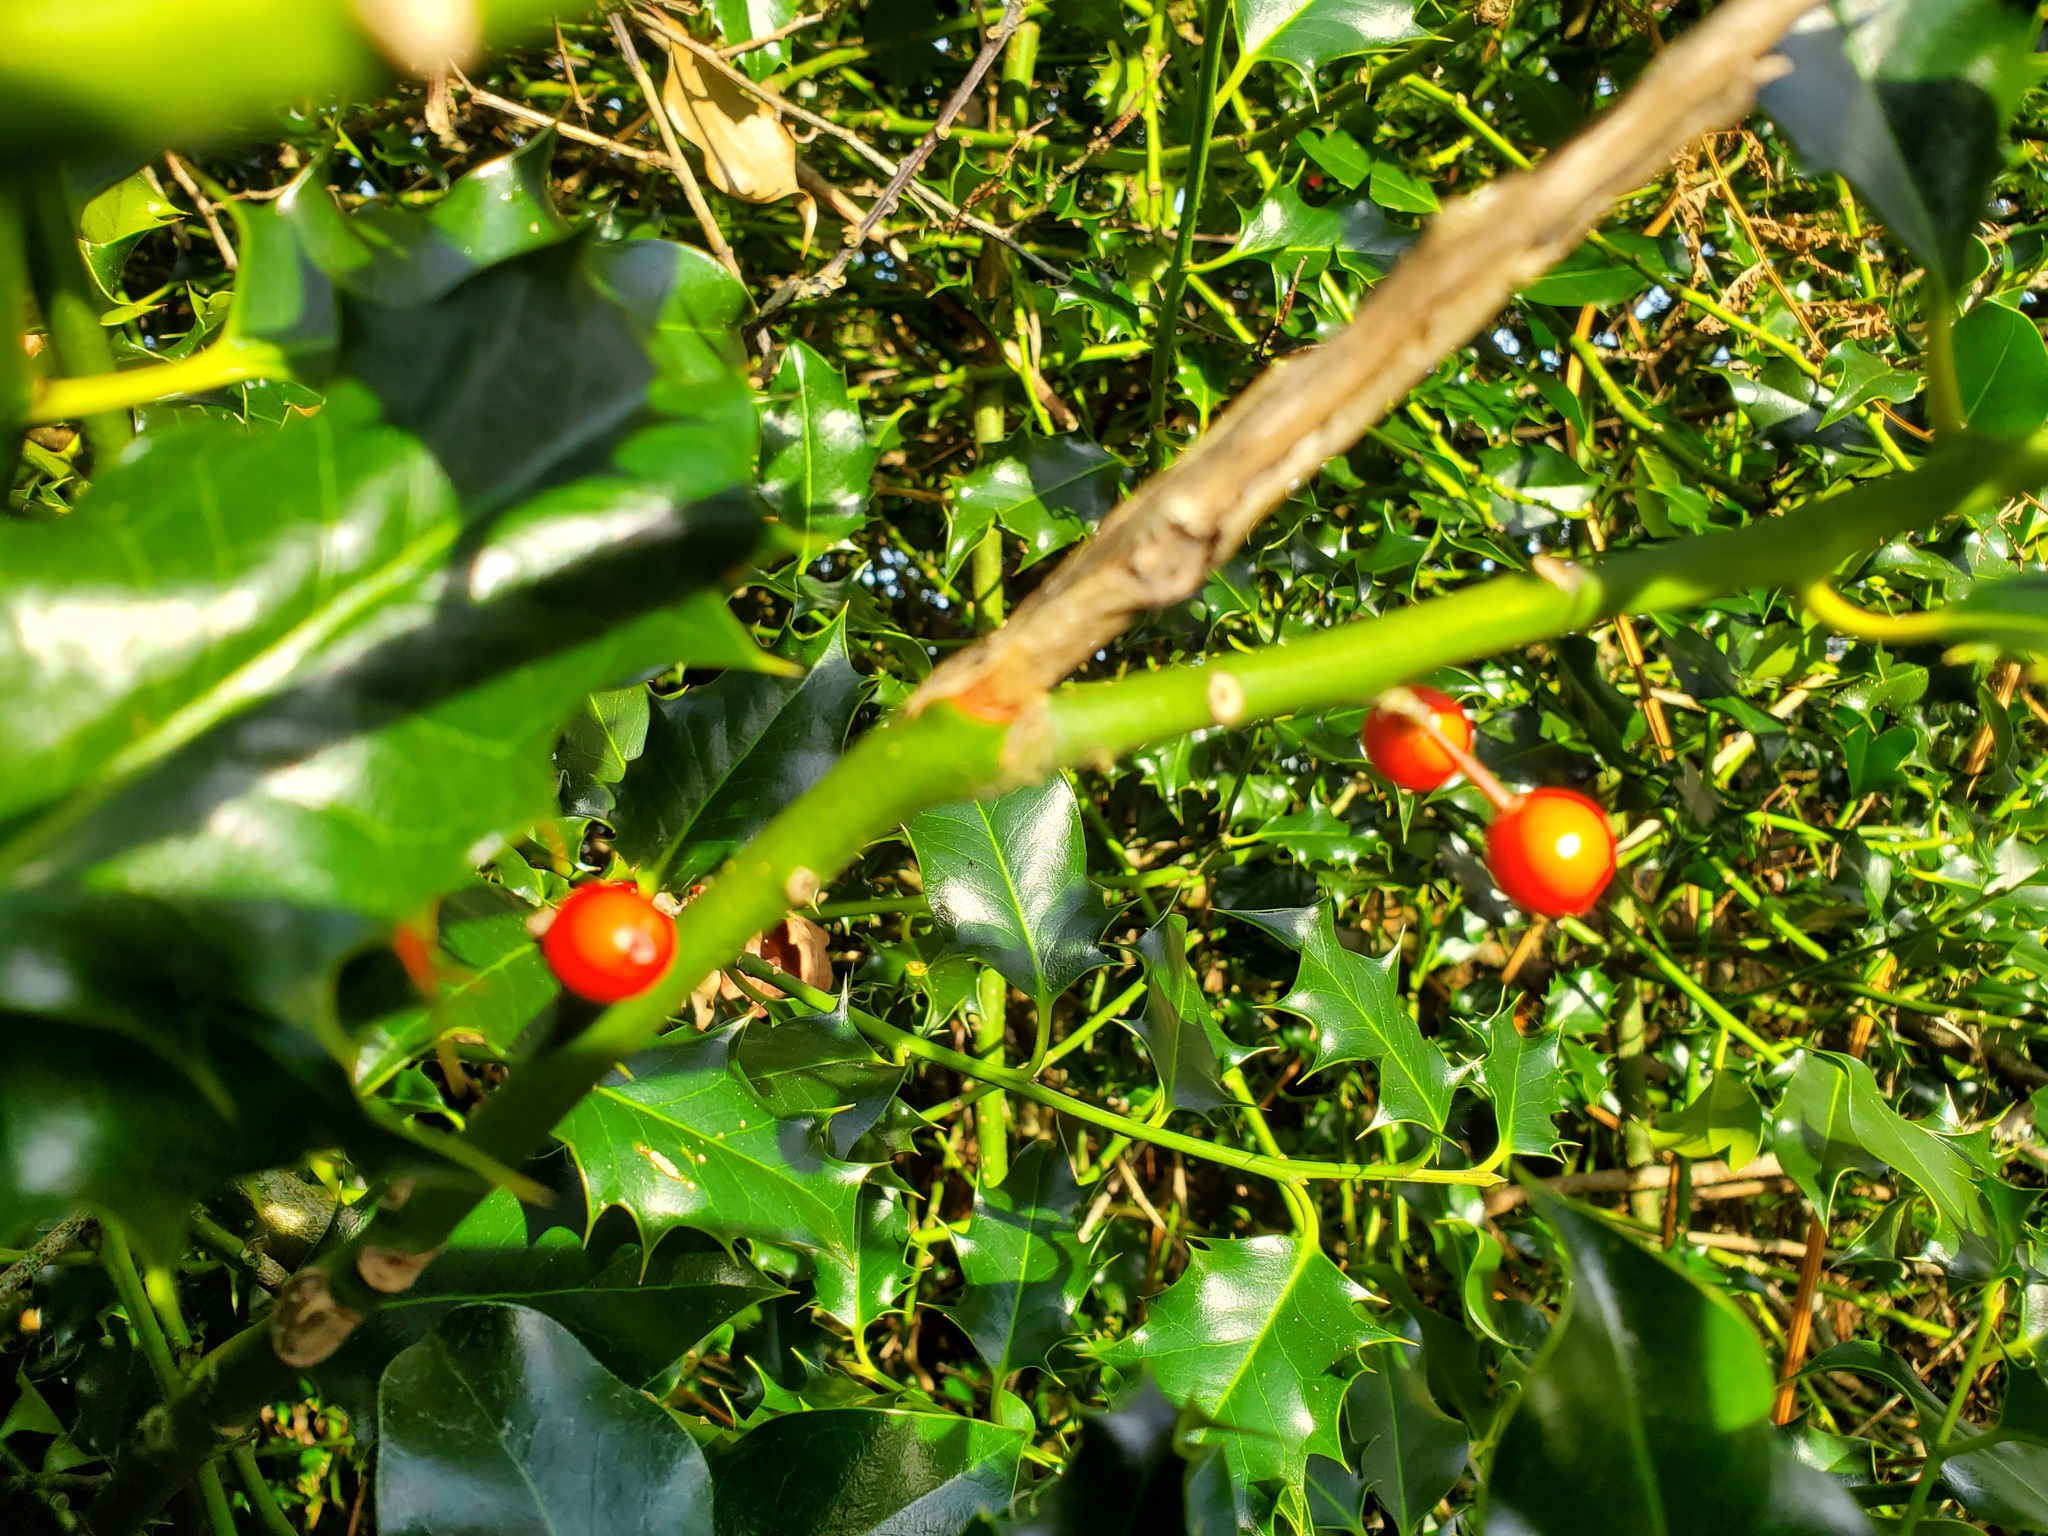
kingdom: Plantae
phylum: Tracheophyta
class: Magnoliopsida
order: Aquifoliales
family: Aquifoliaceae
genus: Ilex
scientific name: Ilex aquifolium
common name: English holly
